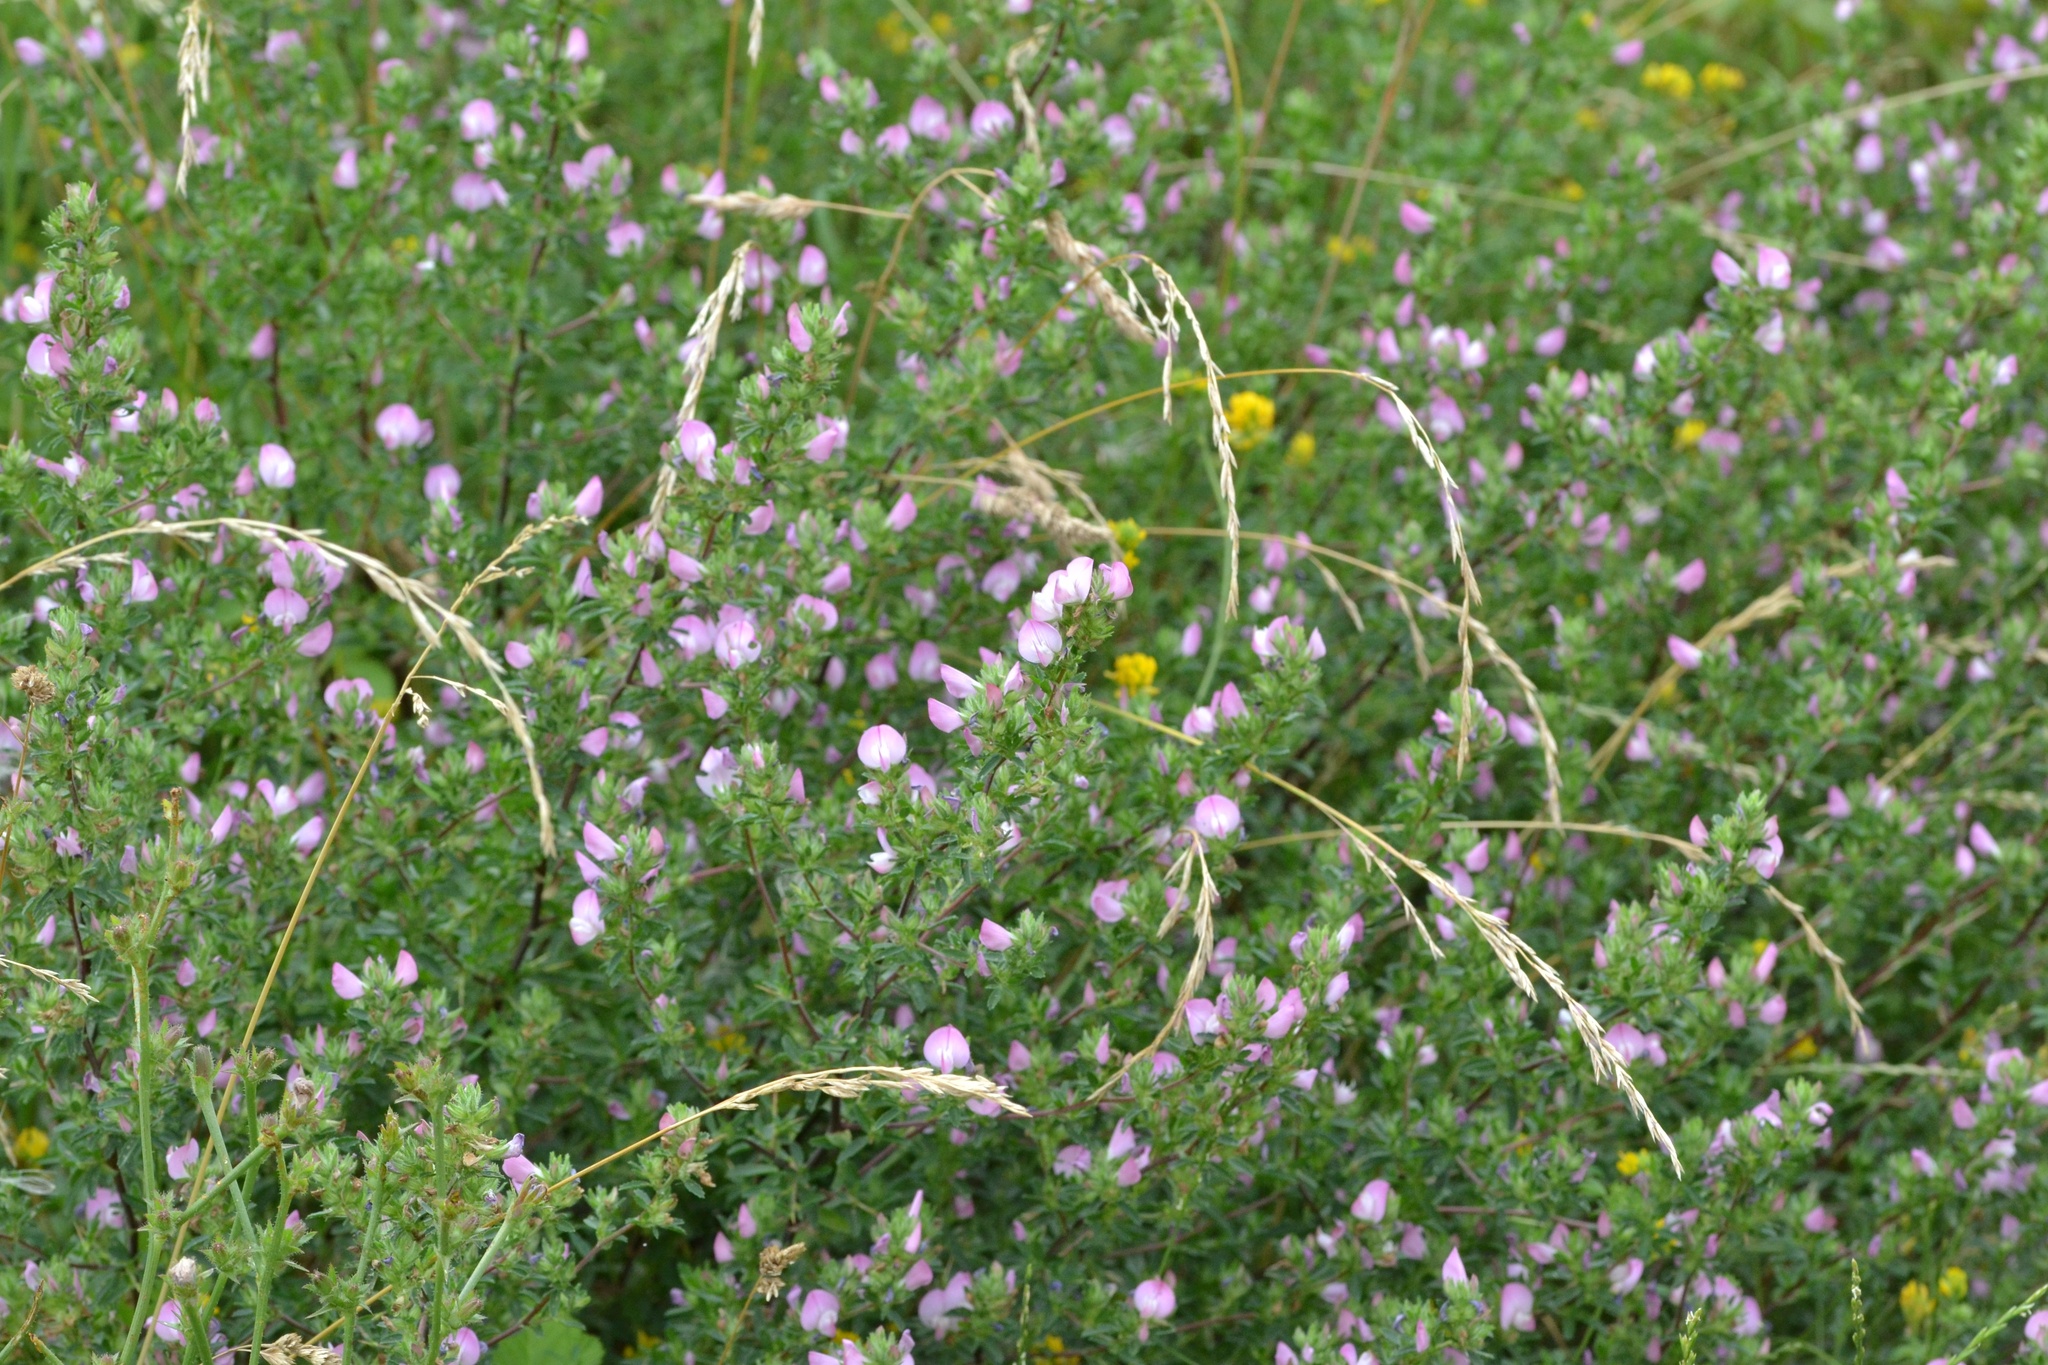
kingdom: Plantae
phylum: Tracheophyta
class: Magnoliopsida
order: Fabales
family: Fabaceae
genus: Ononis
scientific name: Ononis spinosa
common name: Spiny restharrow
